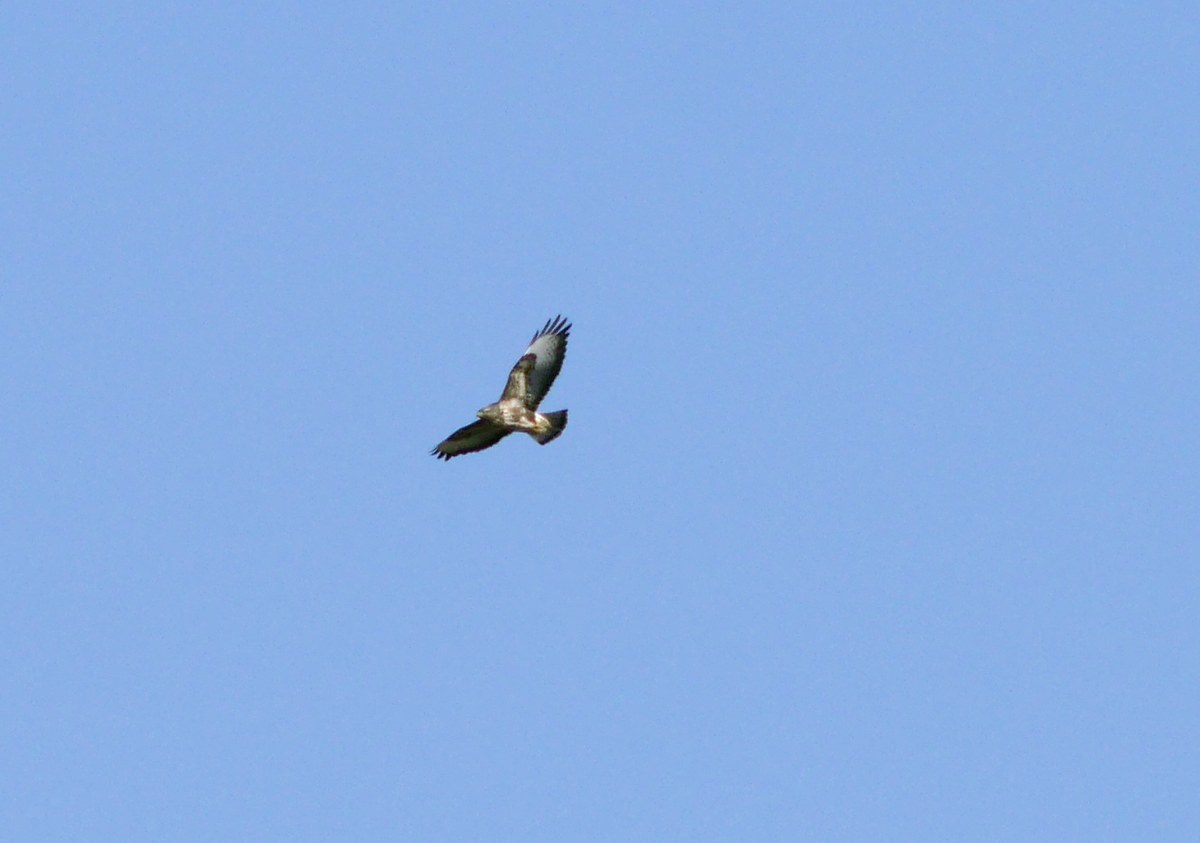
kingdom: Animalia
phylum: Chordata
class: Aves
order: Accipitriformes
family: Accipitridae
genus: Buteo
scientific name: Buteo buteo
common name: Common buzzard
